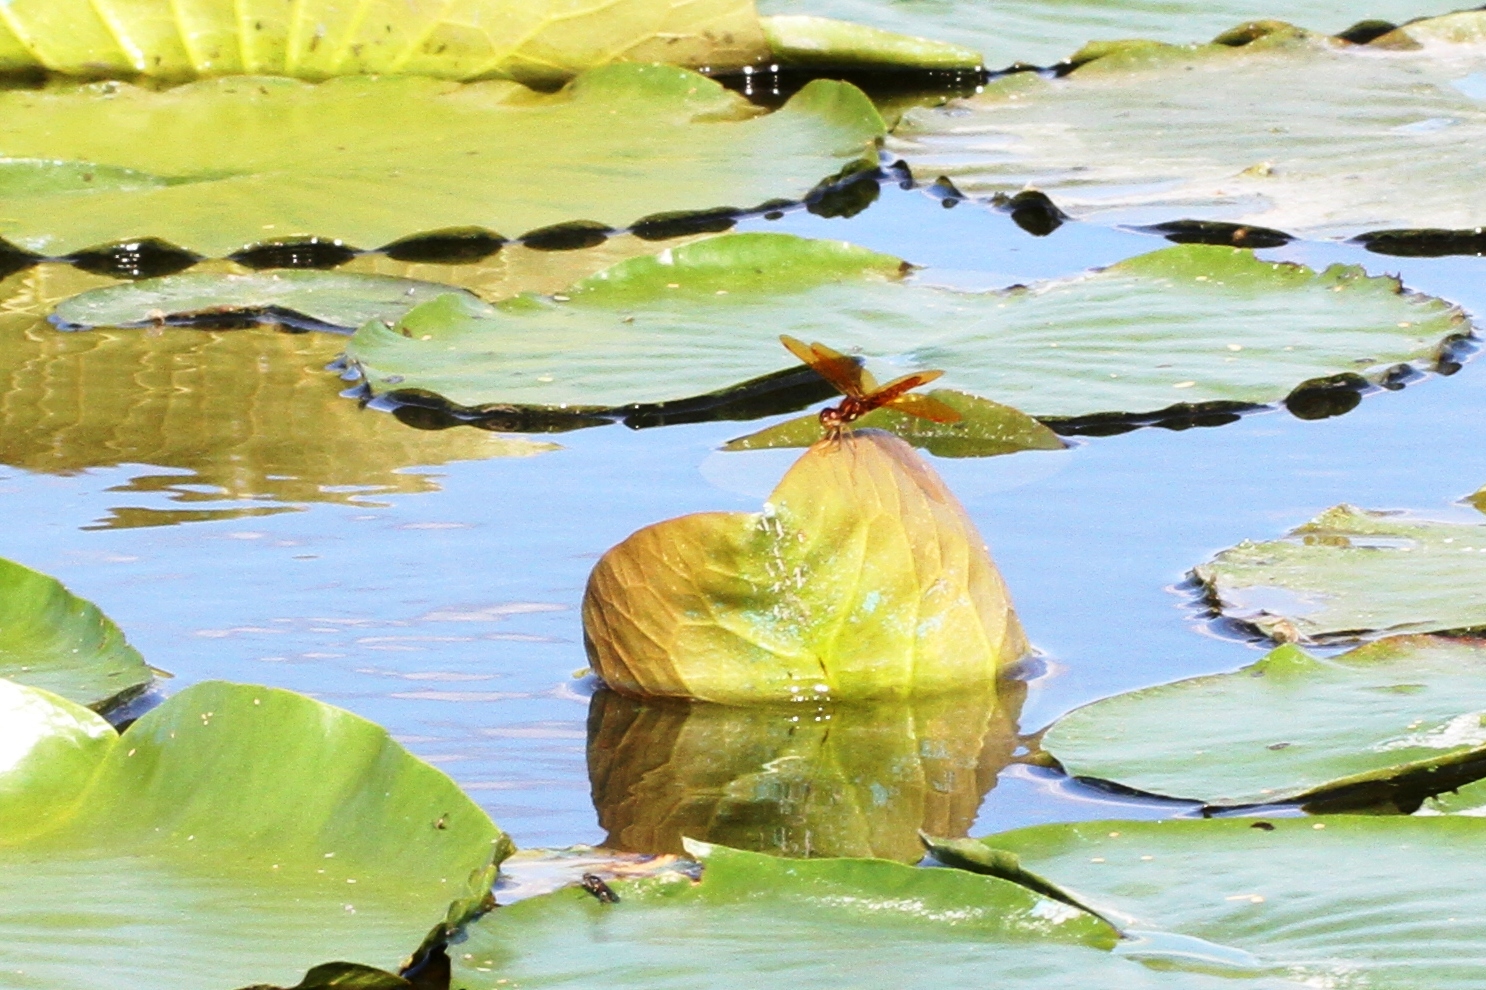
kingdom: Animalia
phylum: Arthropoda
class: Insecta
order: Odonata
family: Libellulidae
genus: Perithemis
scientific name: Perithemis tenera
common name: Eastern amberwing
